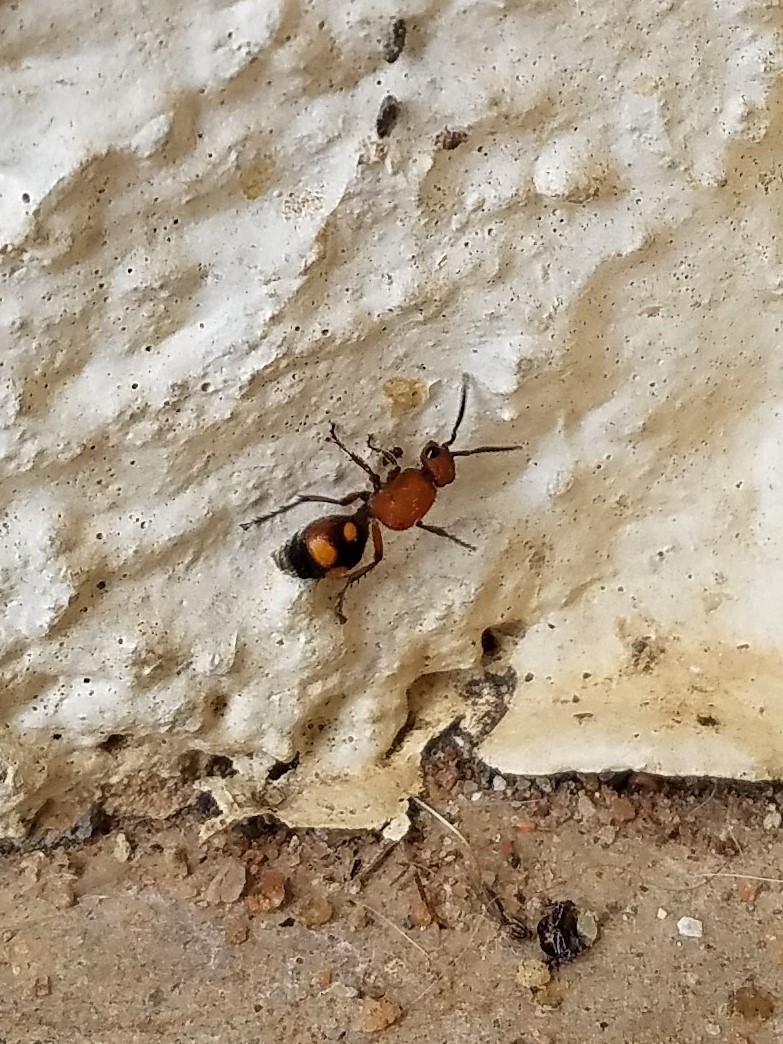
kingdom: Animalia
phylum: Arthropoda
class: Insecta
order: Hymenoptera
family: Mutillidae
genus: Dasymutilla
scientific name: Dasymutilla
